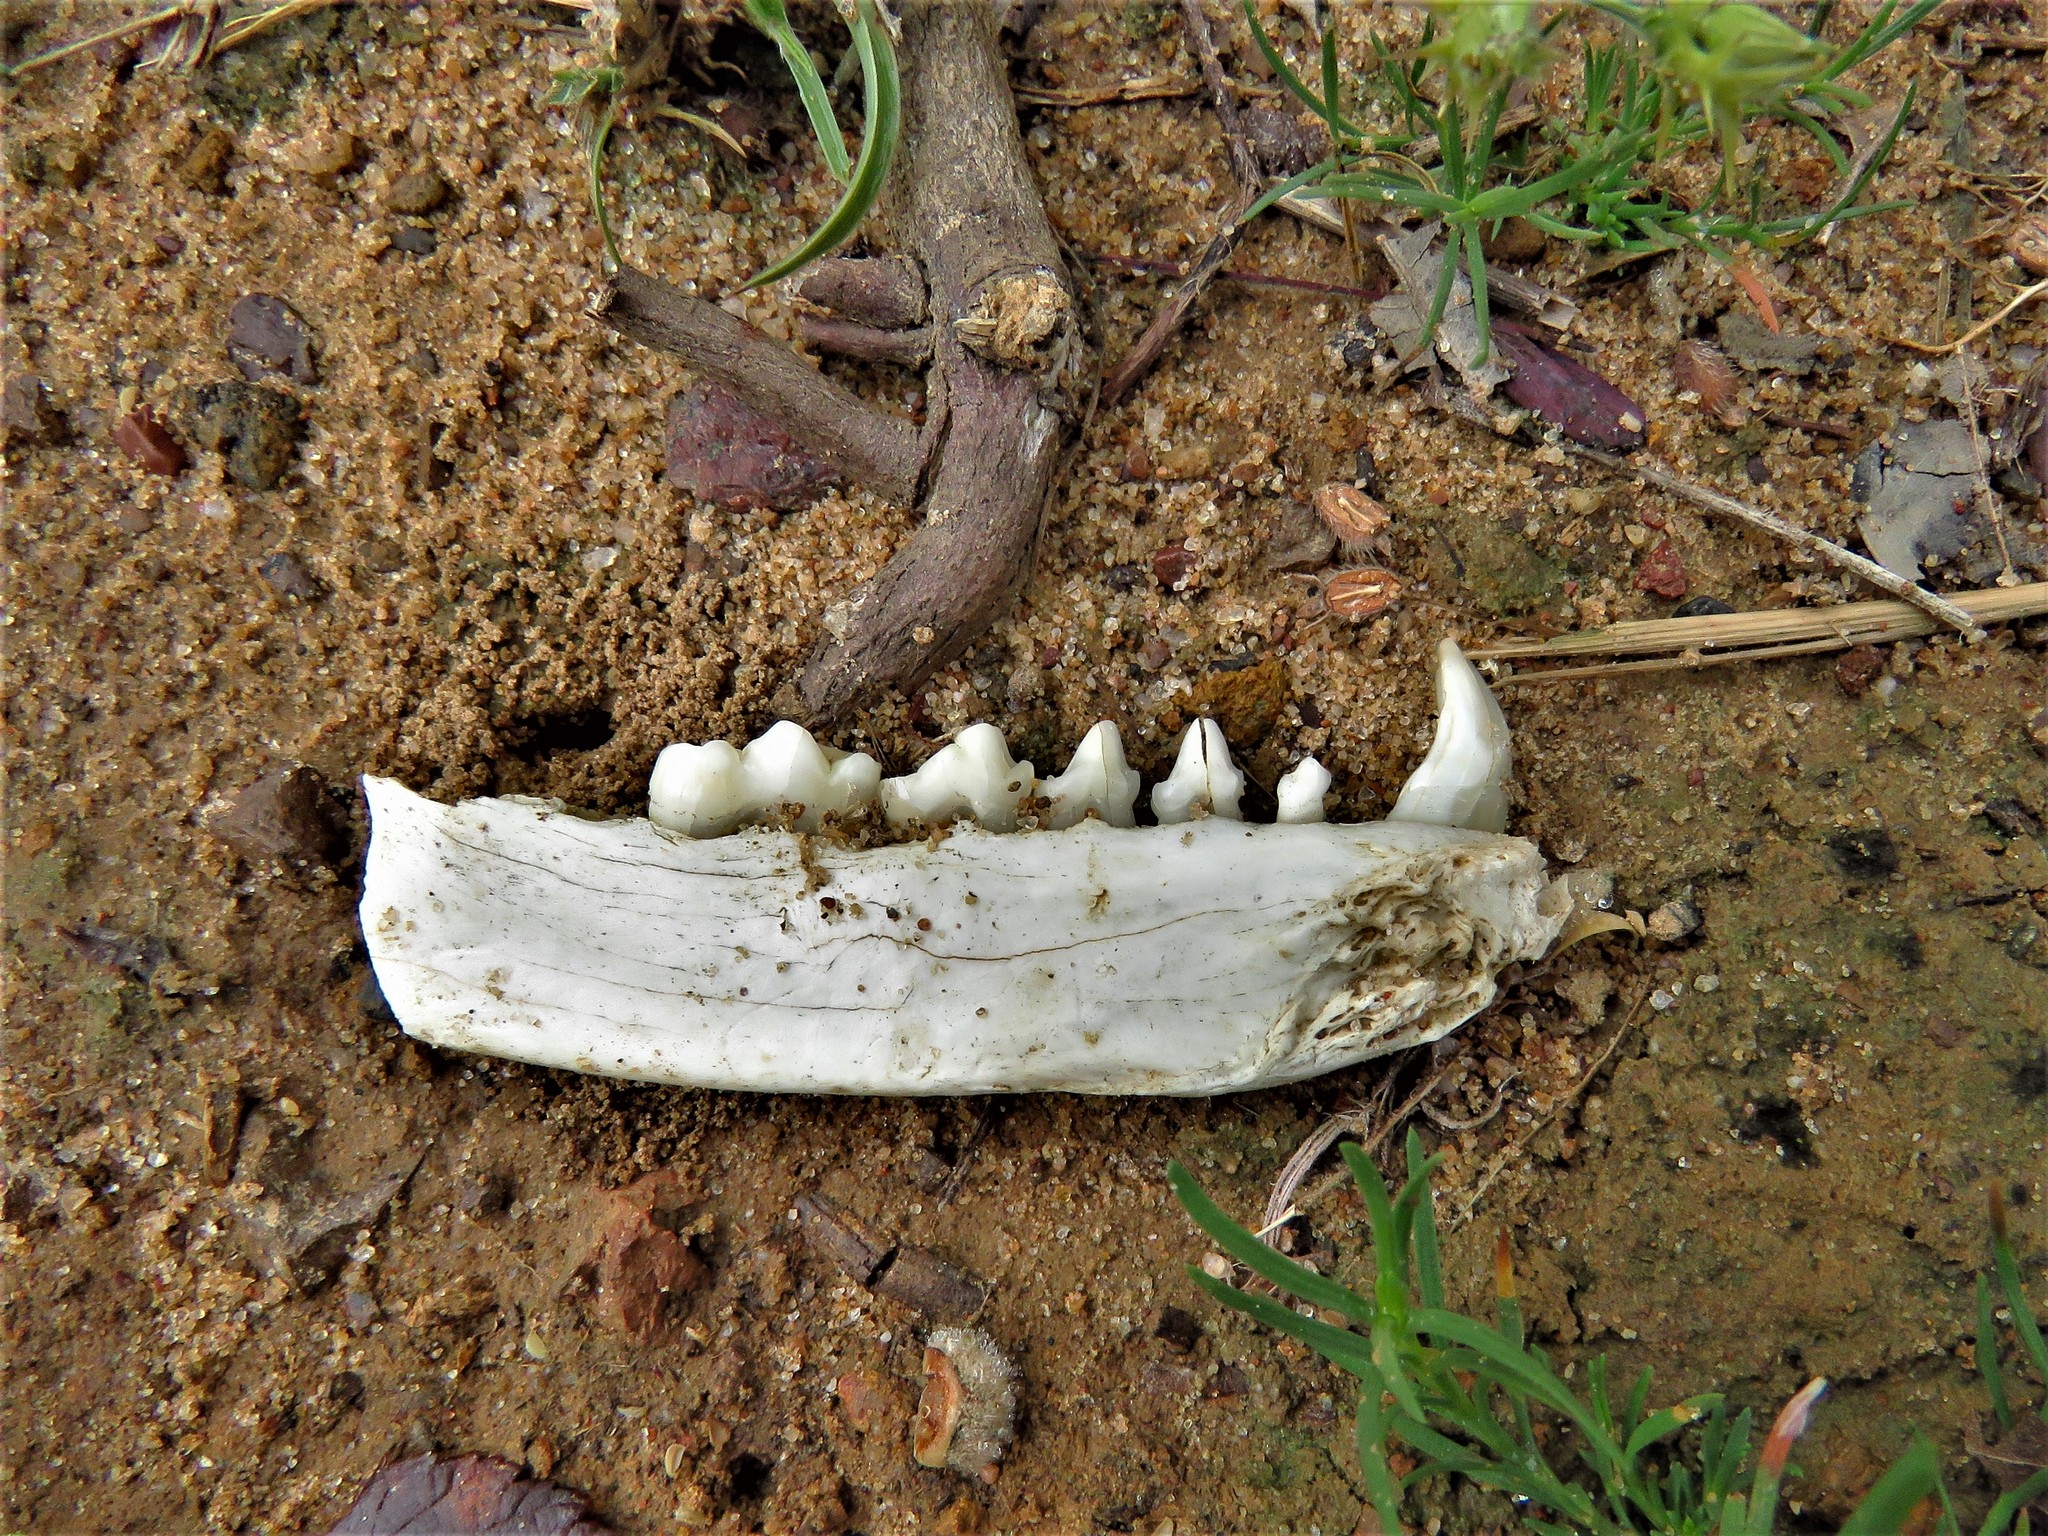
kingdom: Animalia
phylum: Chordata
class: Mammalia
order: Carnivora
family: Procyonidae
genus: Procyon
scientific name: Procyon lotor
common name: Raccoon
